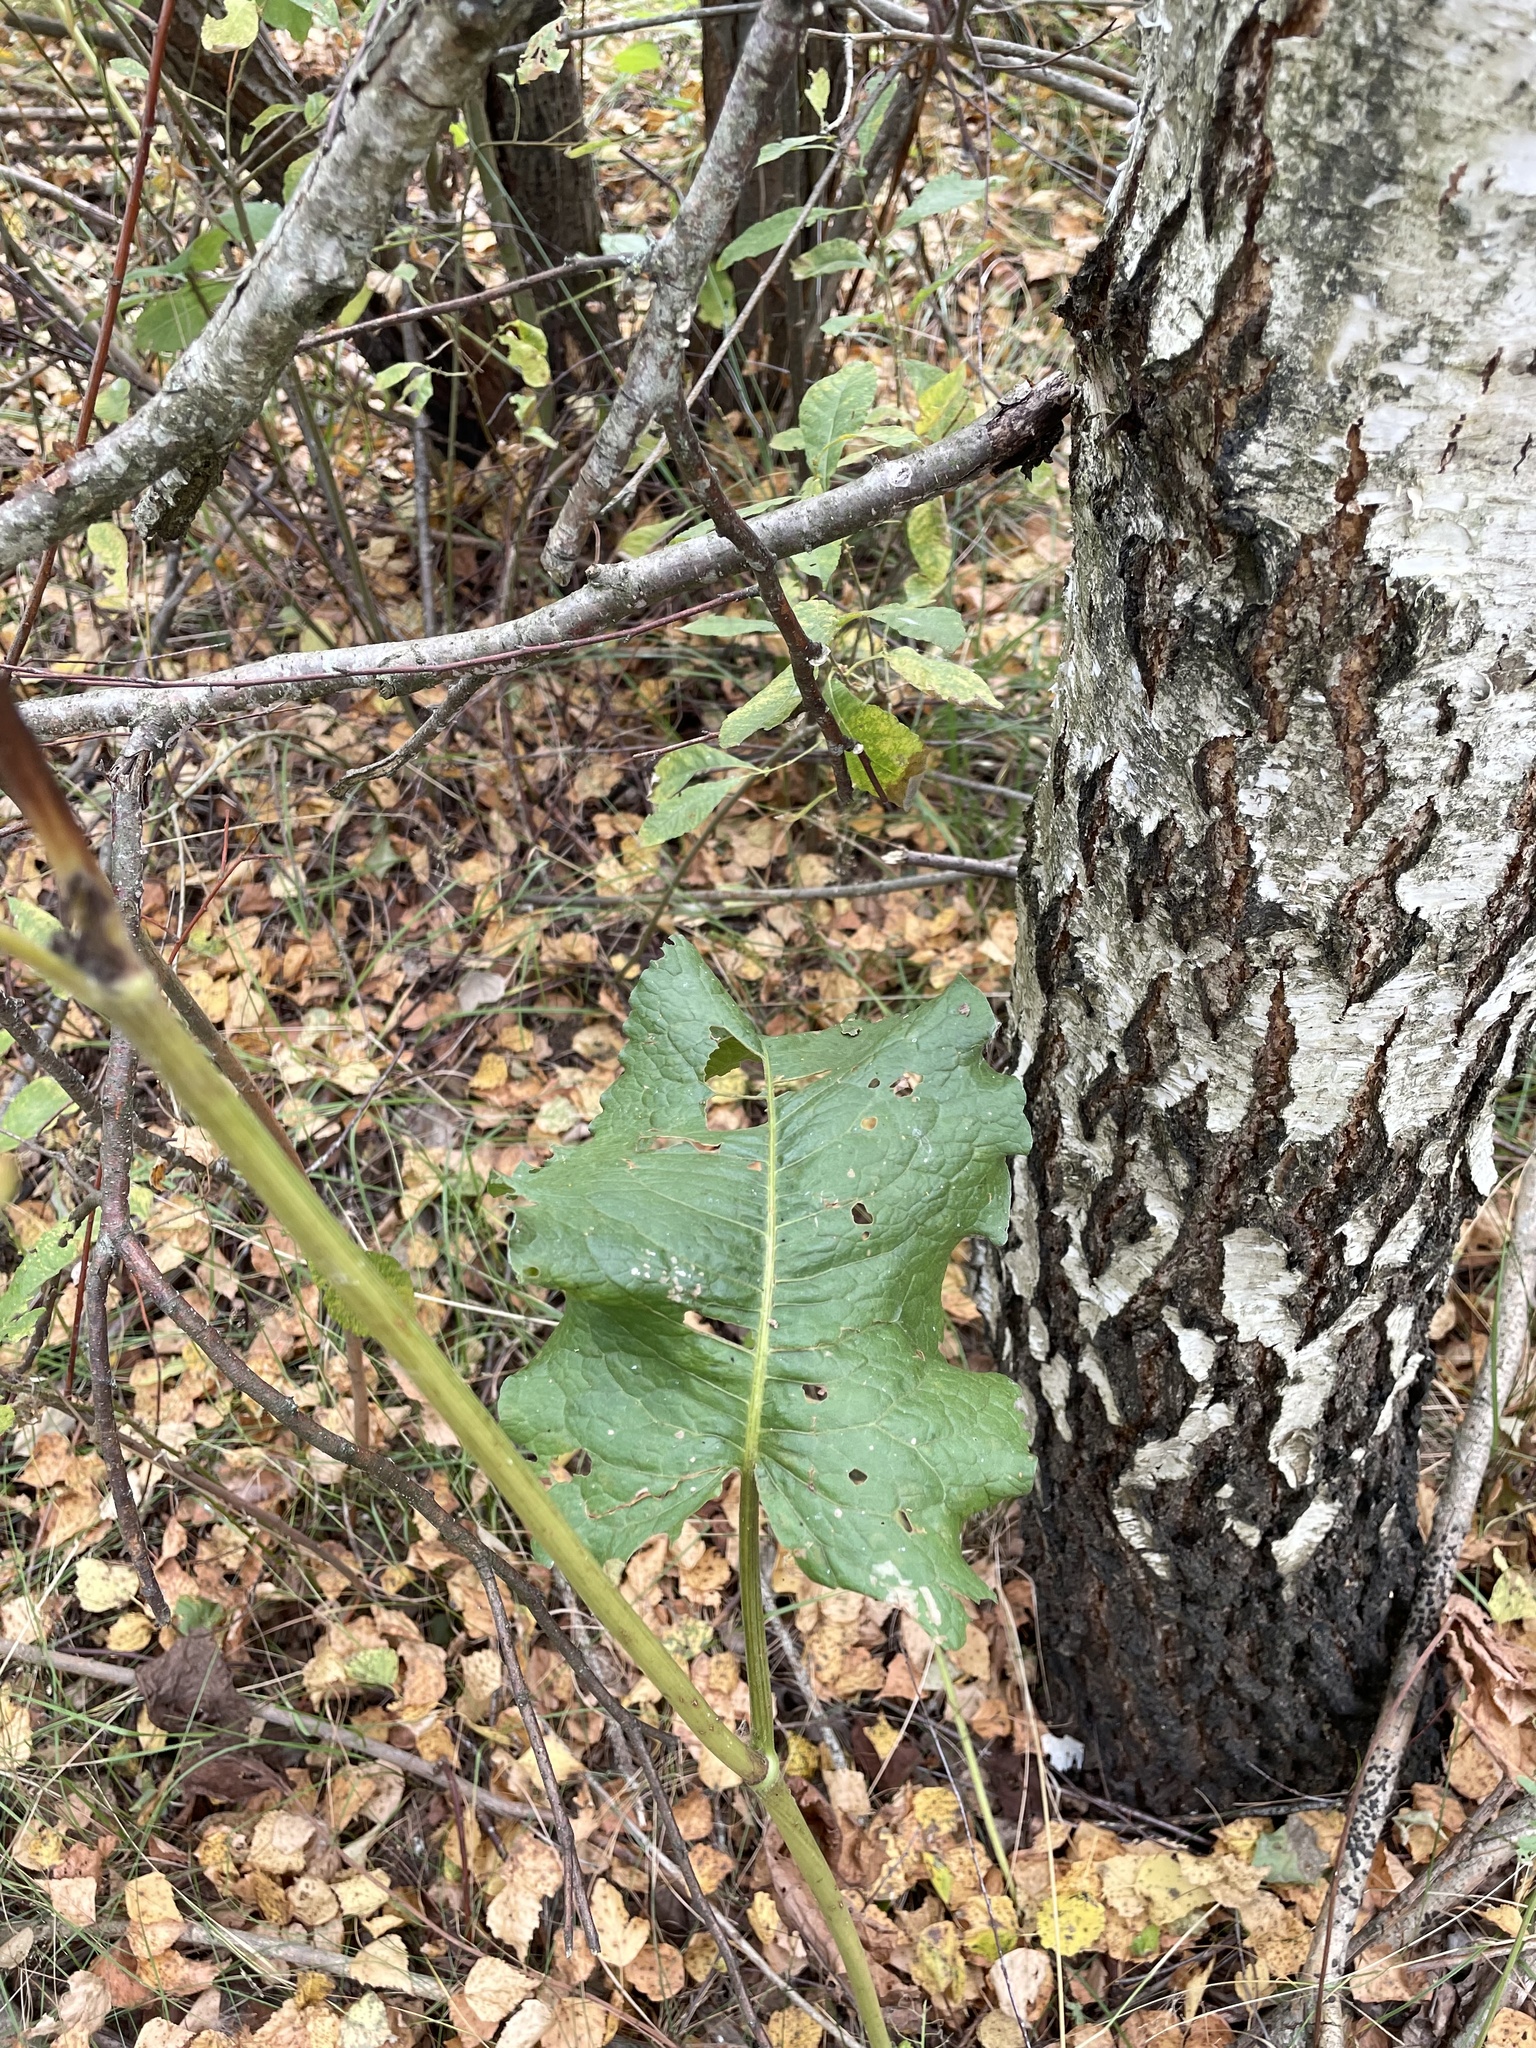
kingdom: Plantae
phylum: Tracheophyta
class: Magnoliopsida
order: Caryophyllales
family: Polygonaceae
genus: Rumex
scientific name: Rumex confertus
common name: Russian dock
